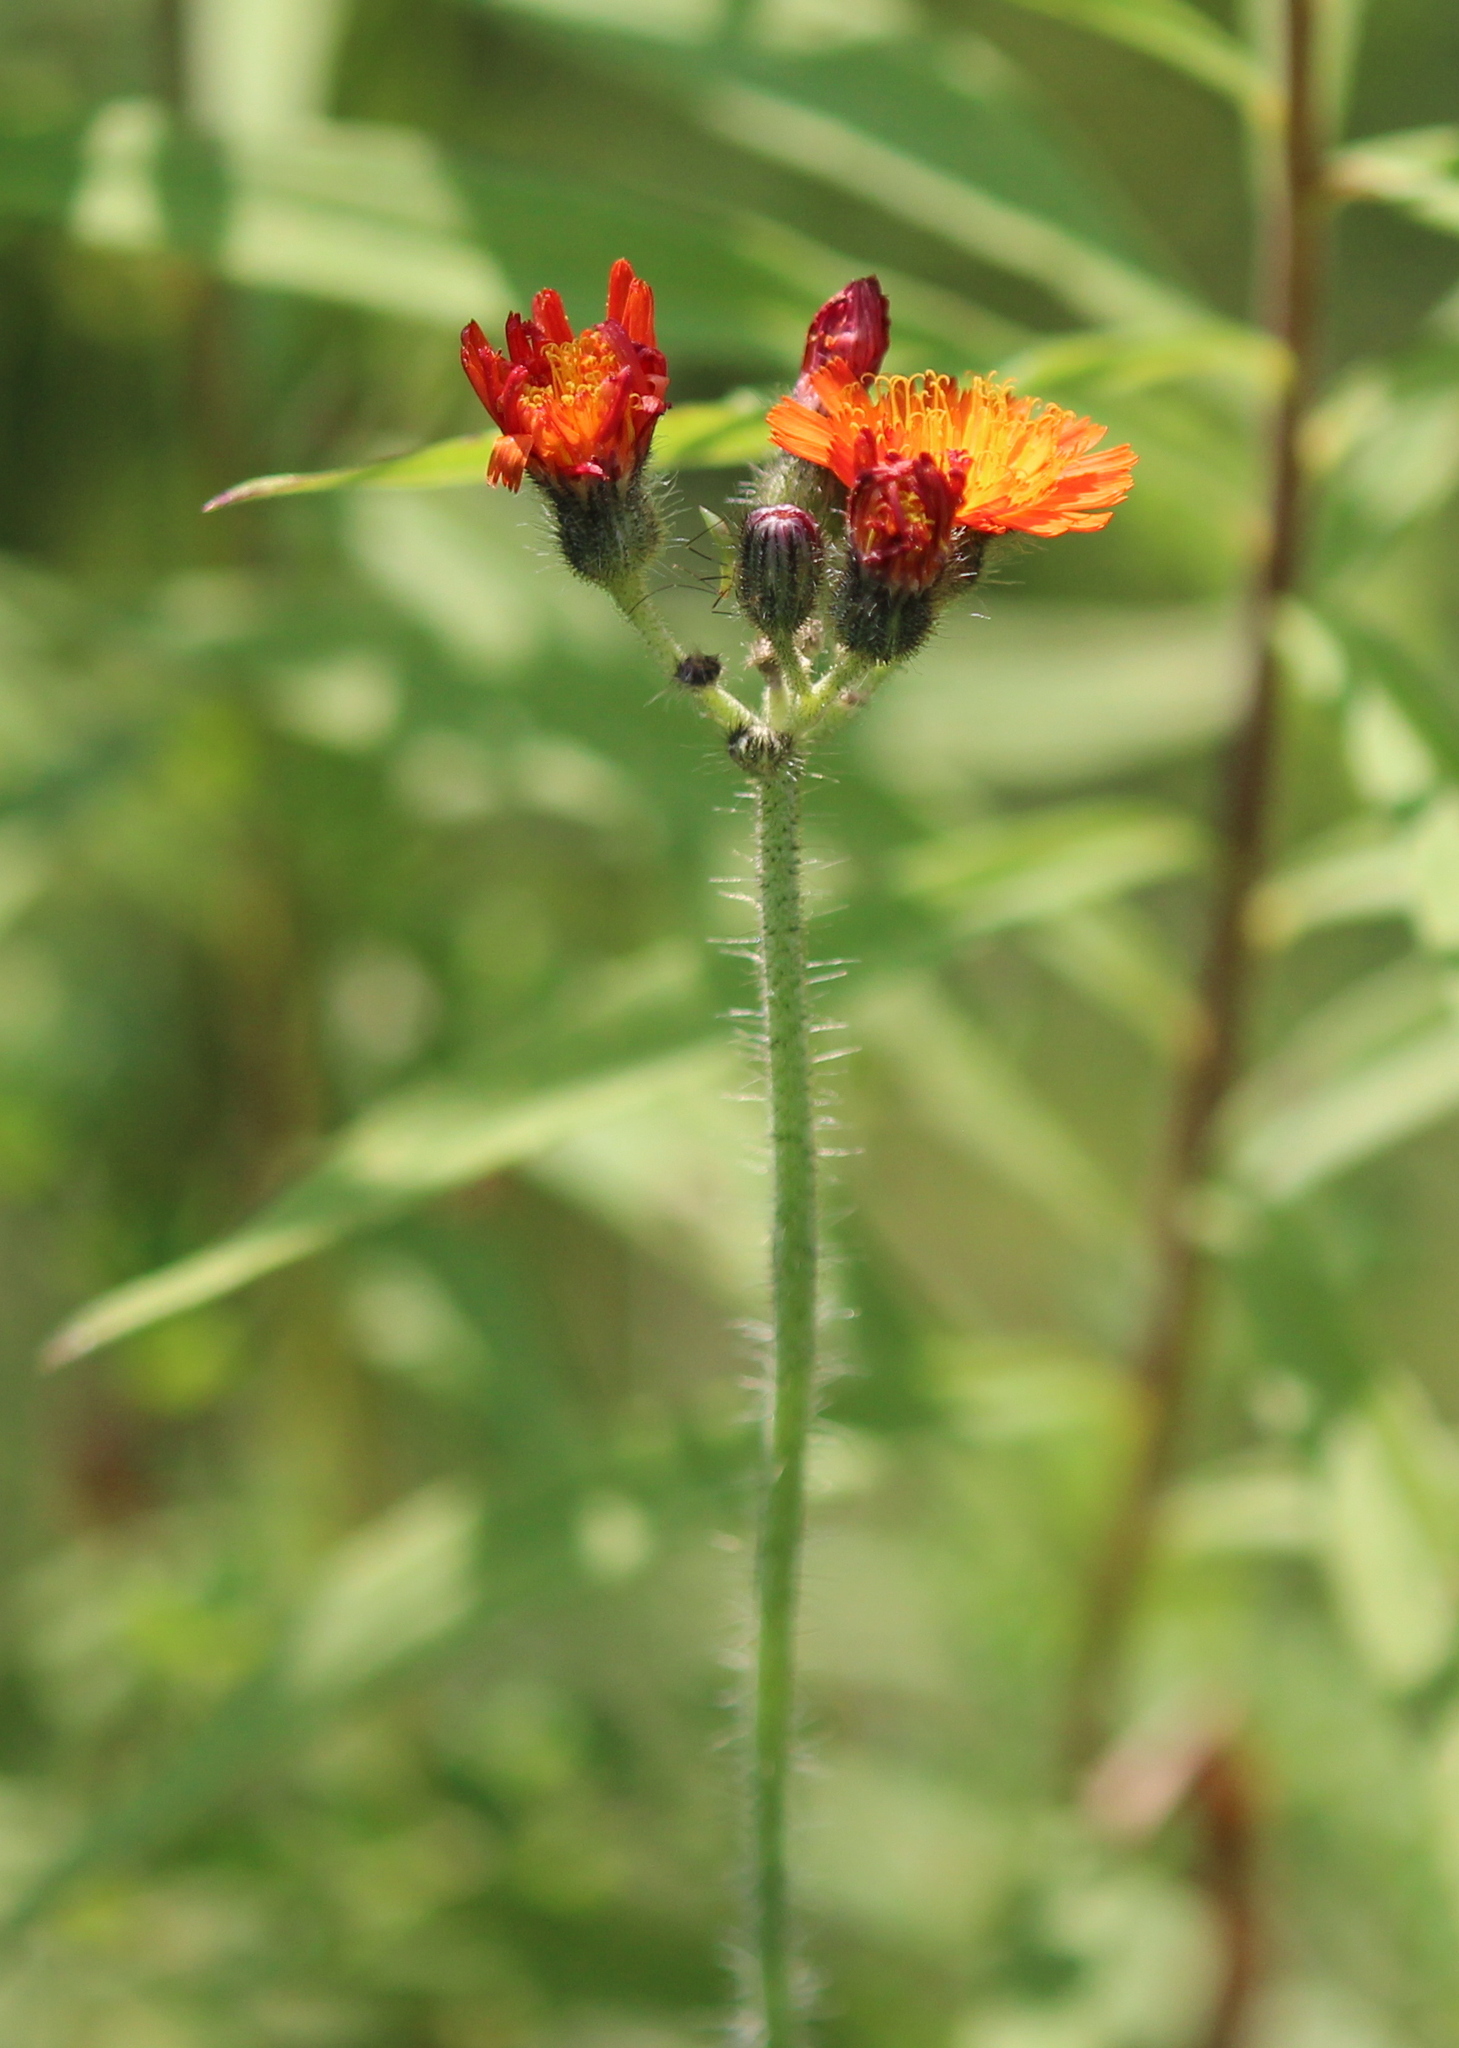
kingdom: Plantae
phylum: Tracheophyta
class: Magnoliopsida
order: Asterales
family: Asteraceae
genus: Pilosella
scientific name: Pilosella aurantiaca
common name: Fox-and-cubs
